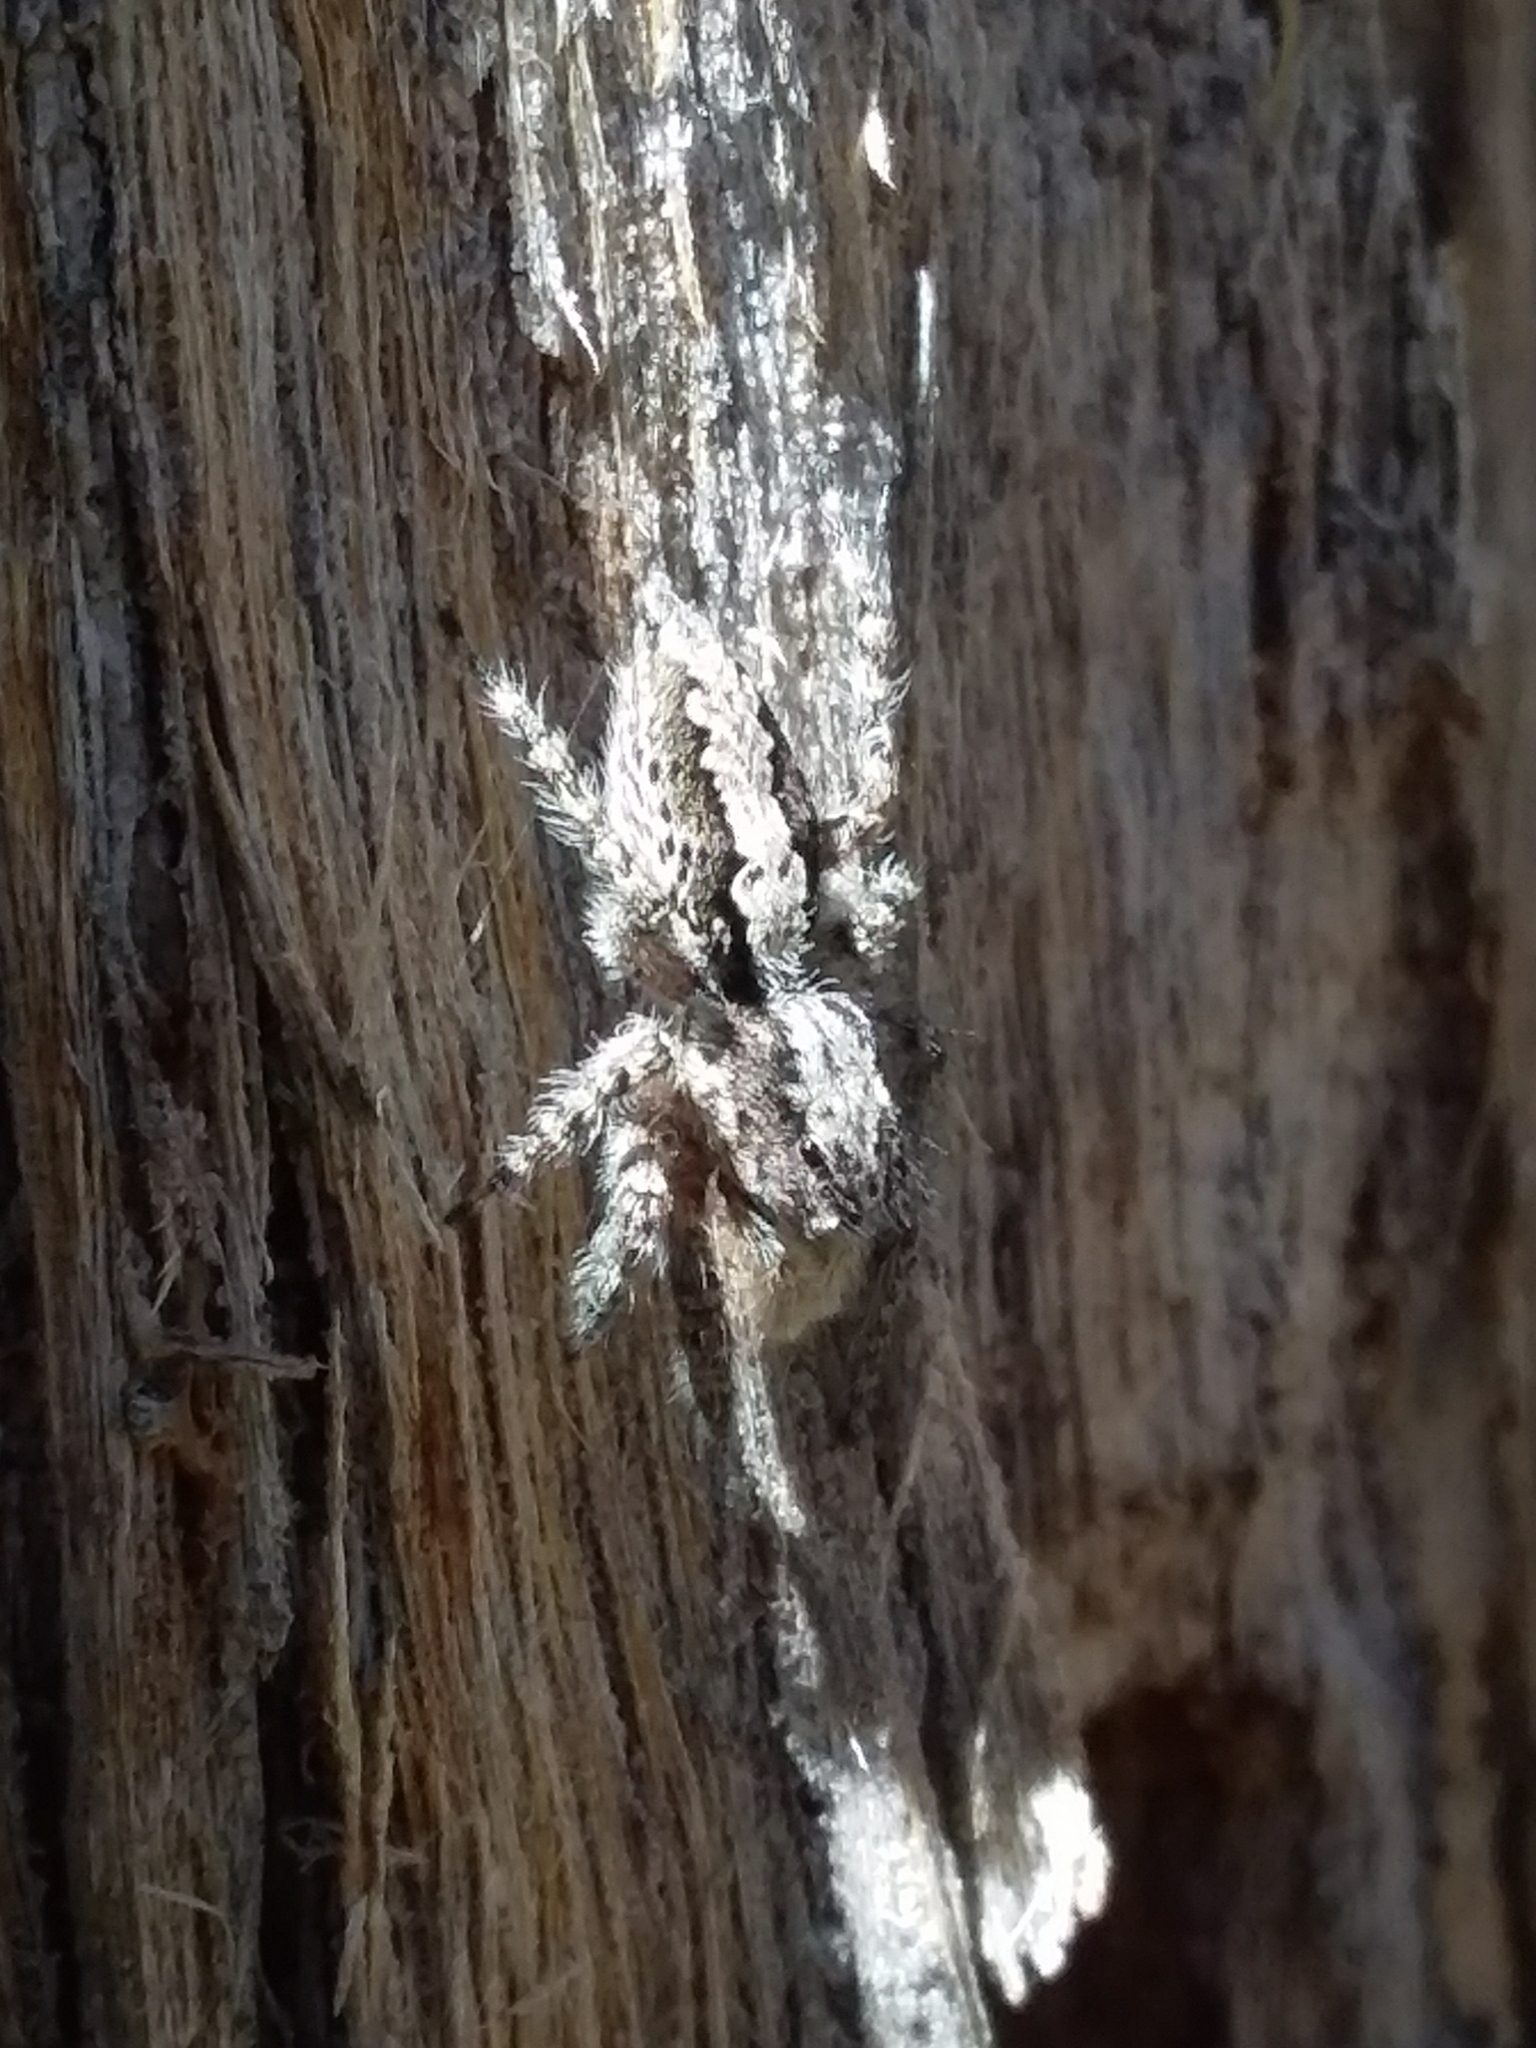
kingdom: Animalia
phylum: Arthropoda
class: Arachnida
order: Araneae
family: Salticidae
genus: Clynotis
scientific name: Clynotis severus
